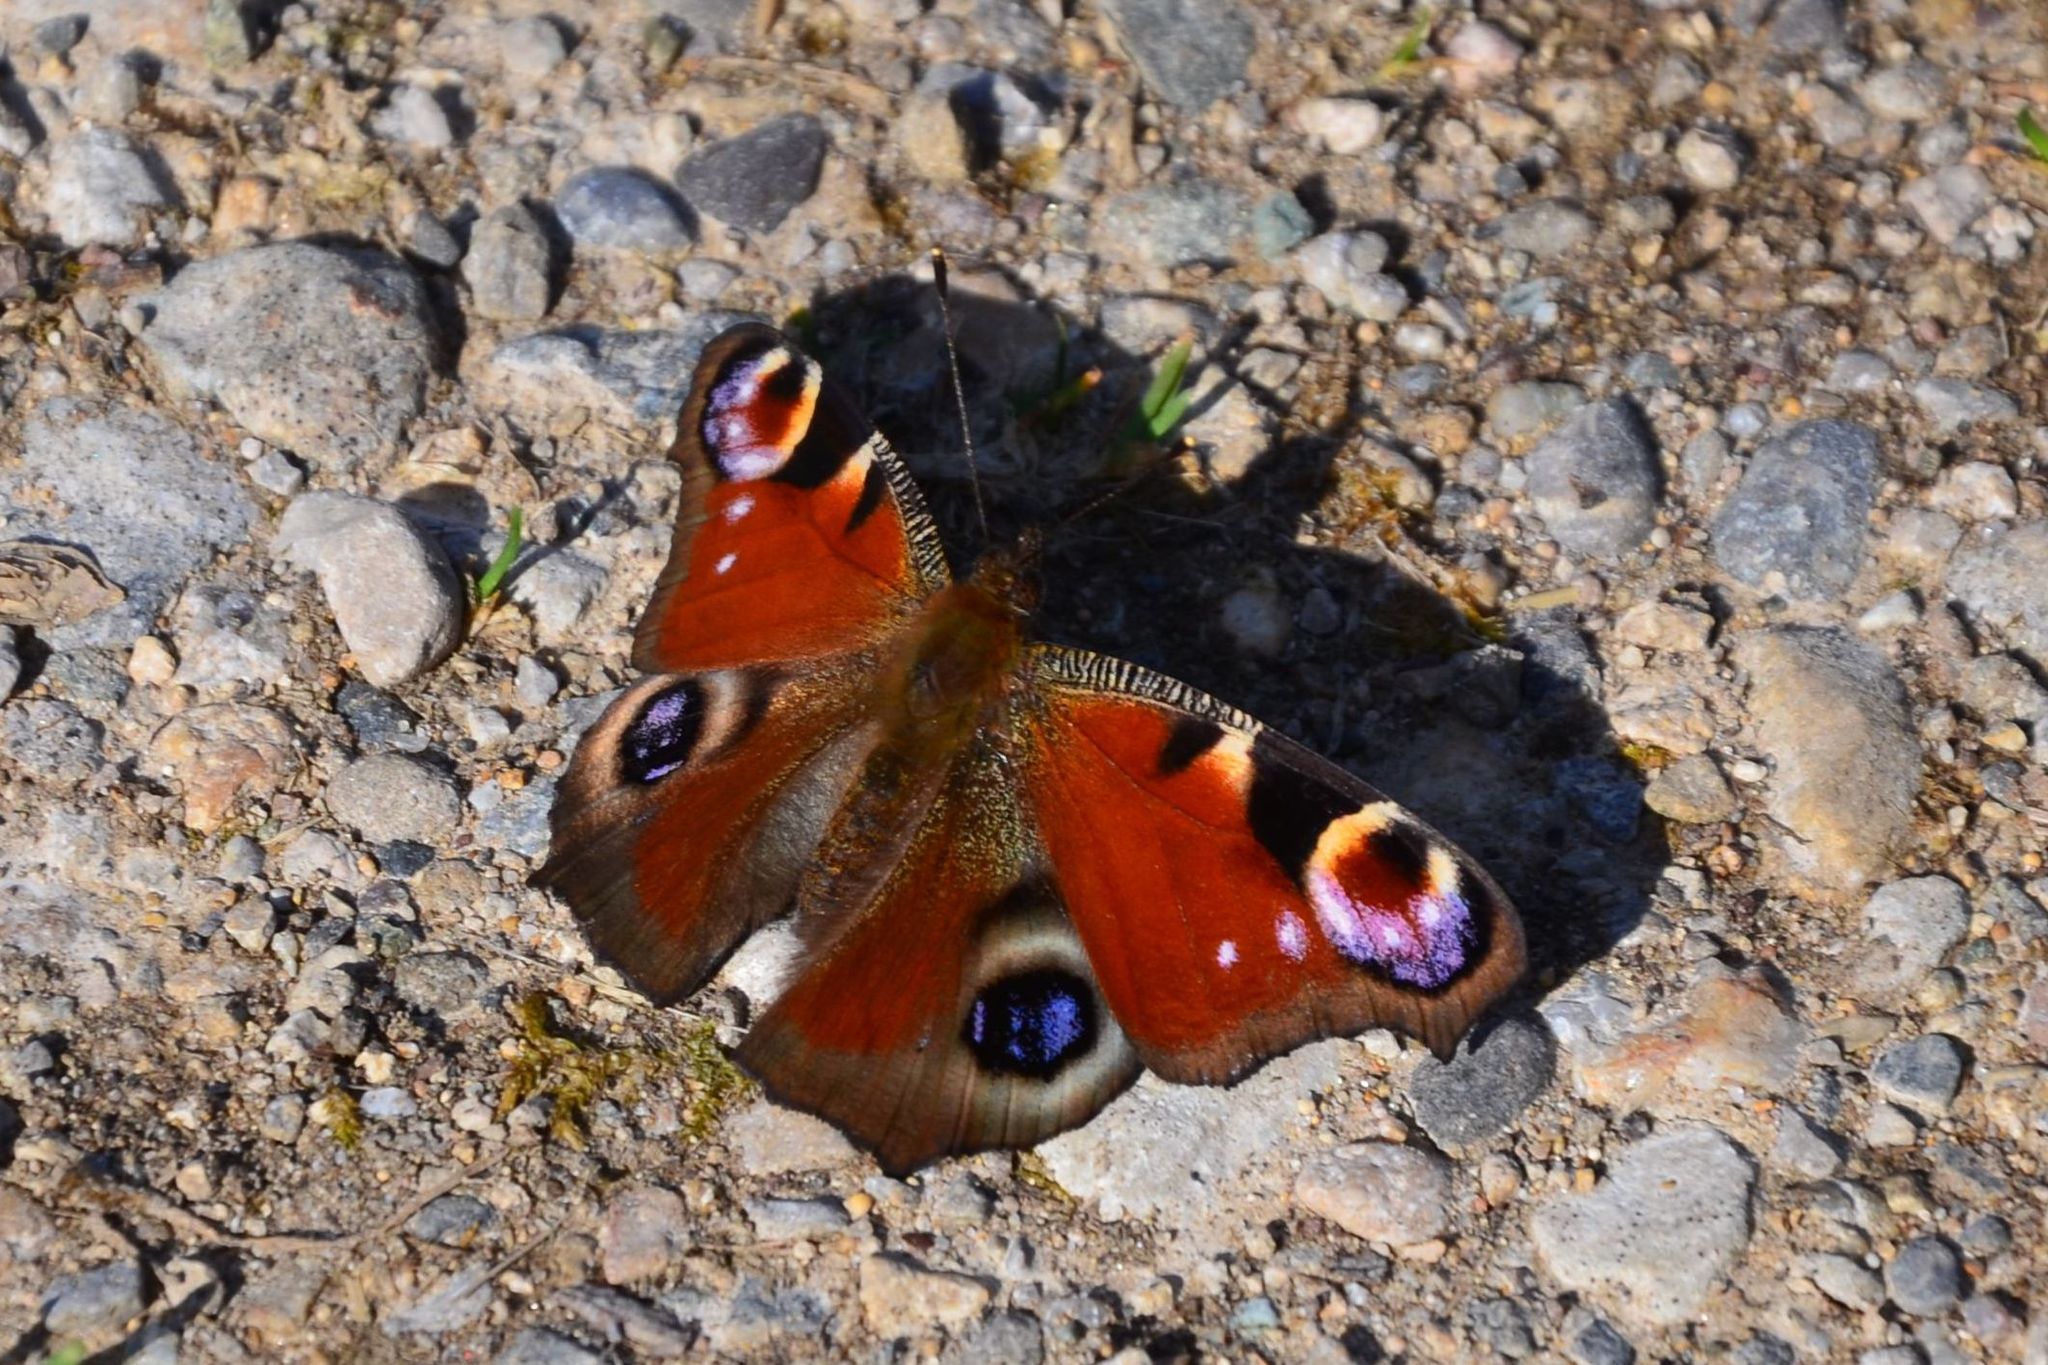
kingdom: Animalia
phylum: Arthropoda
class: Insecta
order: Lepidoptera
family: Nymphalidae
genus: Aglais
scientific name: Aglais io
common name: Peacock
